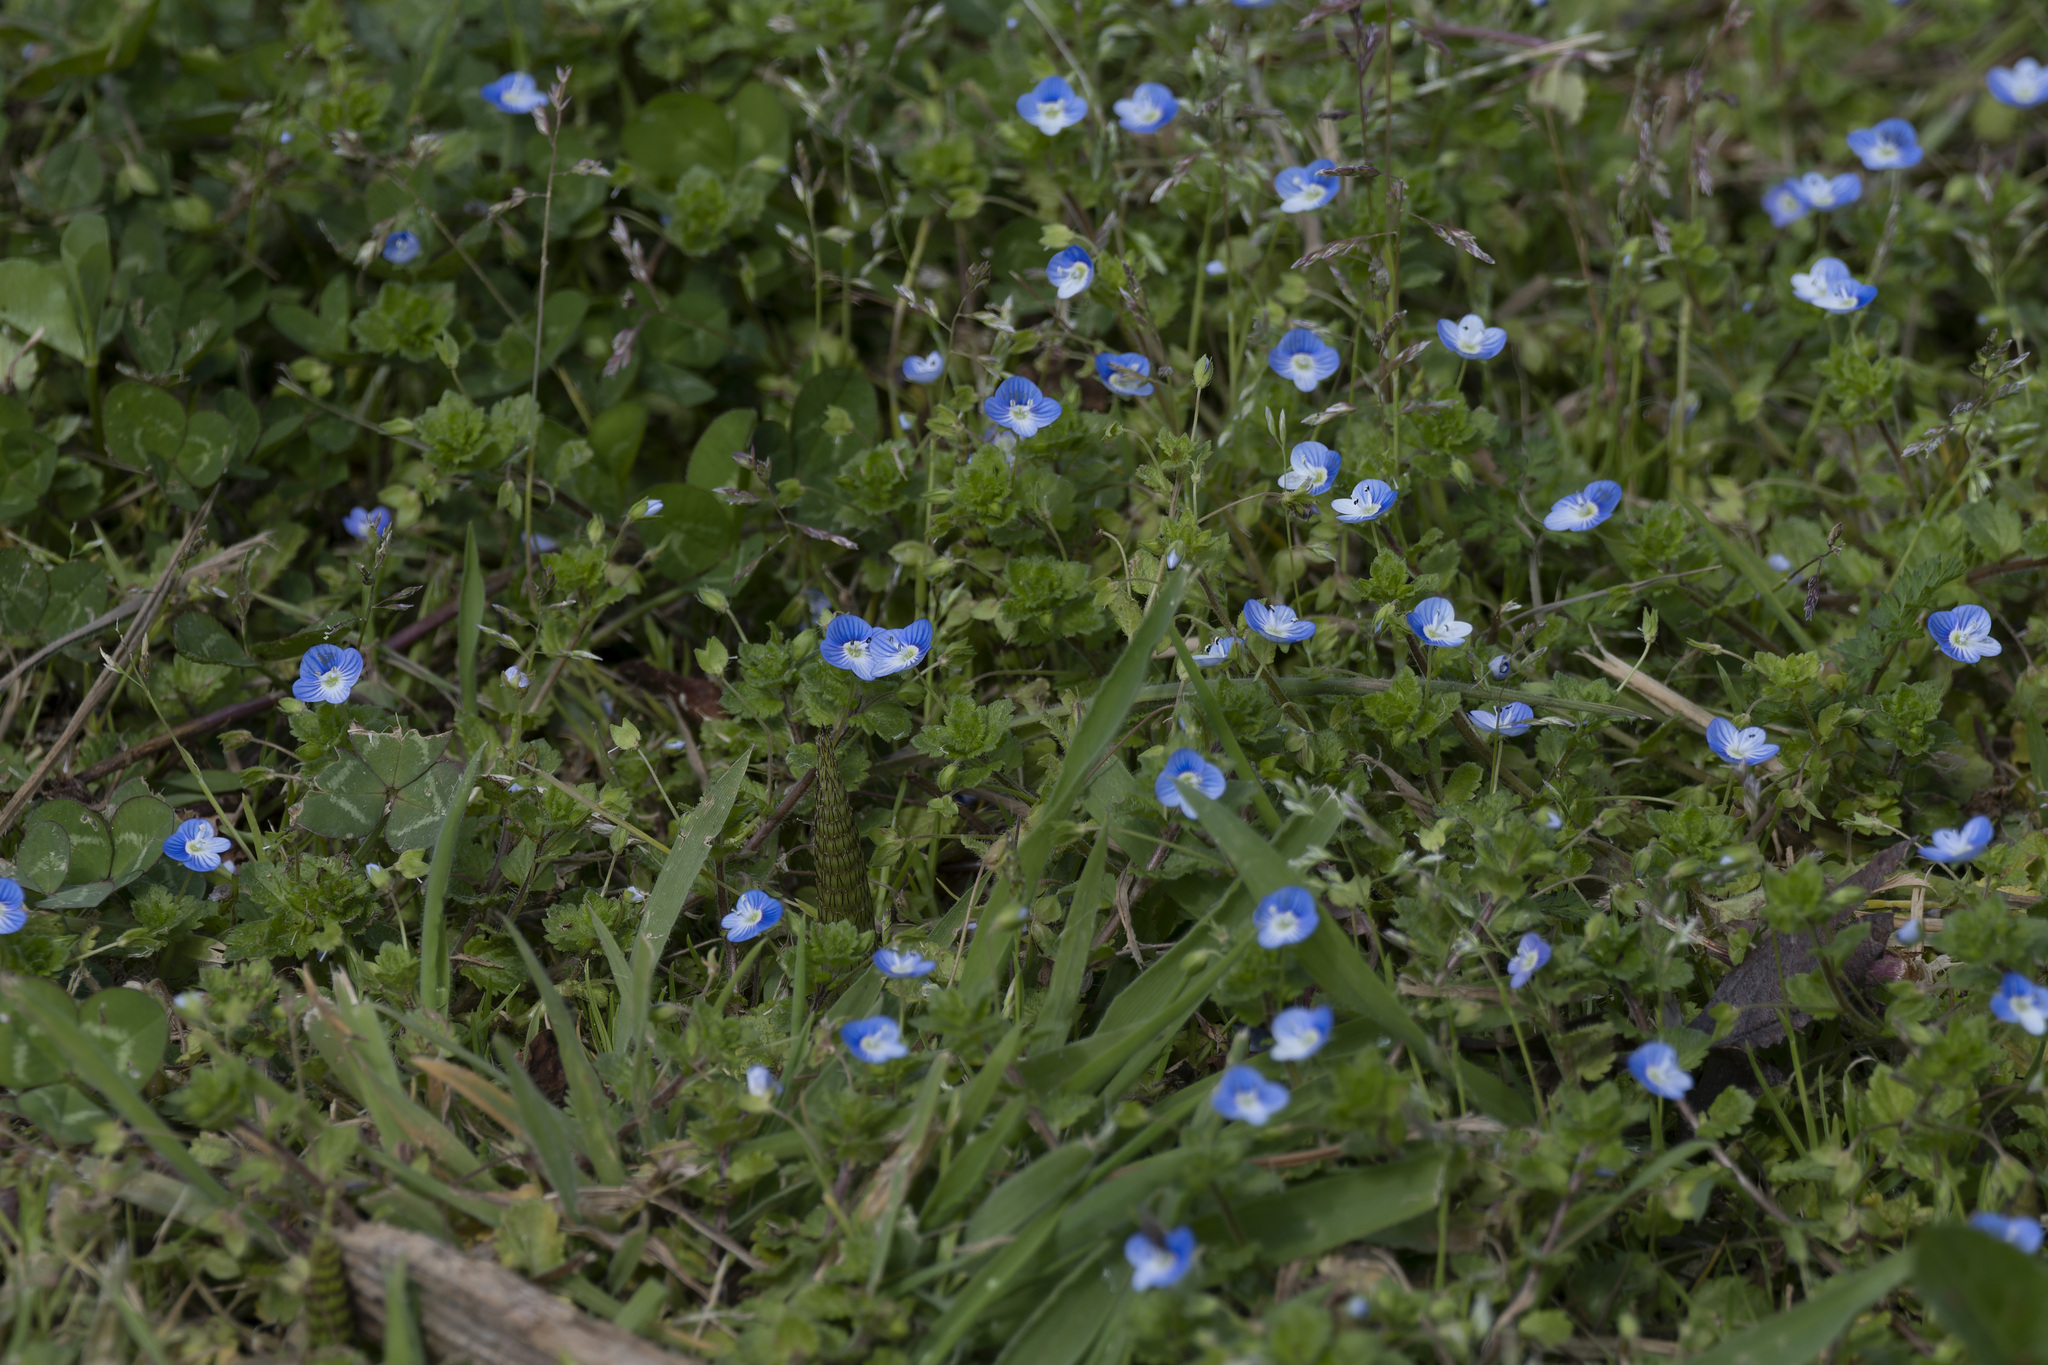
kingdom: Plantae
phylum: Tracheophyta
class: Magnoliopsida
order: Lamiales
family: Plantaginaceae
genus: Veronica
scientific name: Veronica persica
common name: Common field-speedwell
